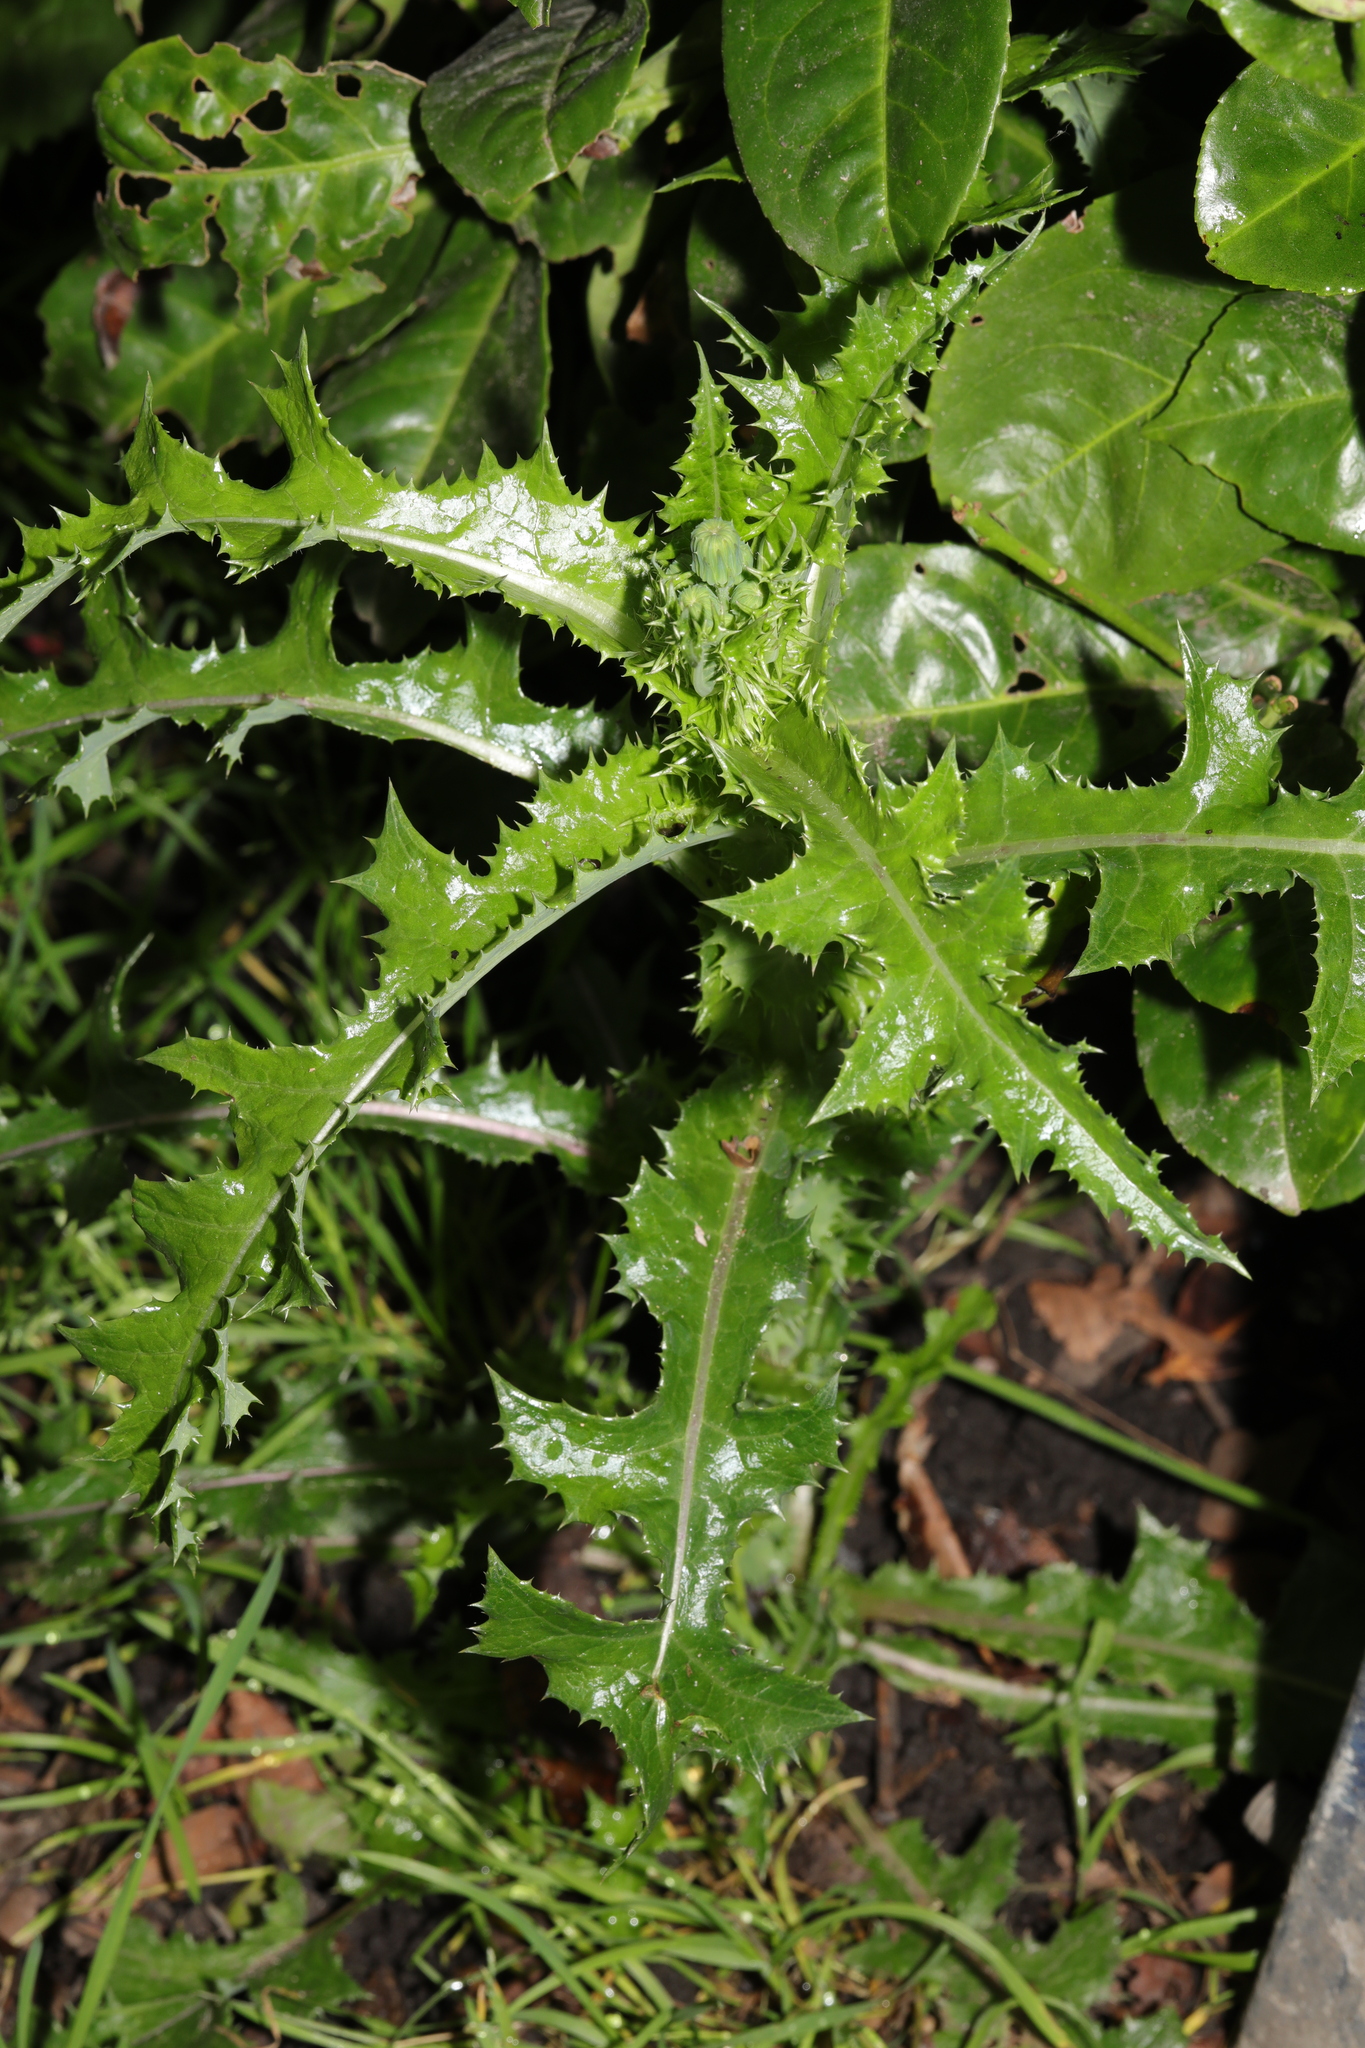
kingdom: Plantae
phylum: Tracheophyta
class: Magnoliopsida
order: Asterales
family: Asteraceae
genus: Sonchus
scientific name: Sonchus asper
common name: Prickly sow-thistle
